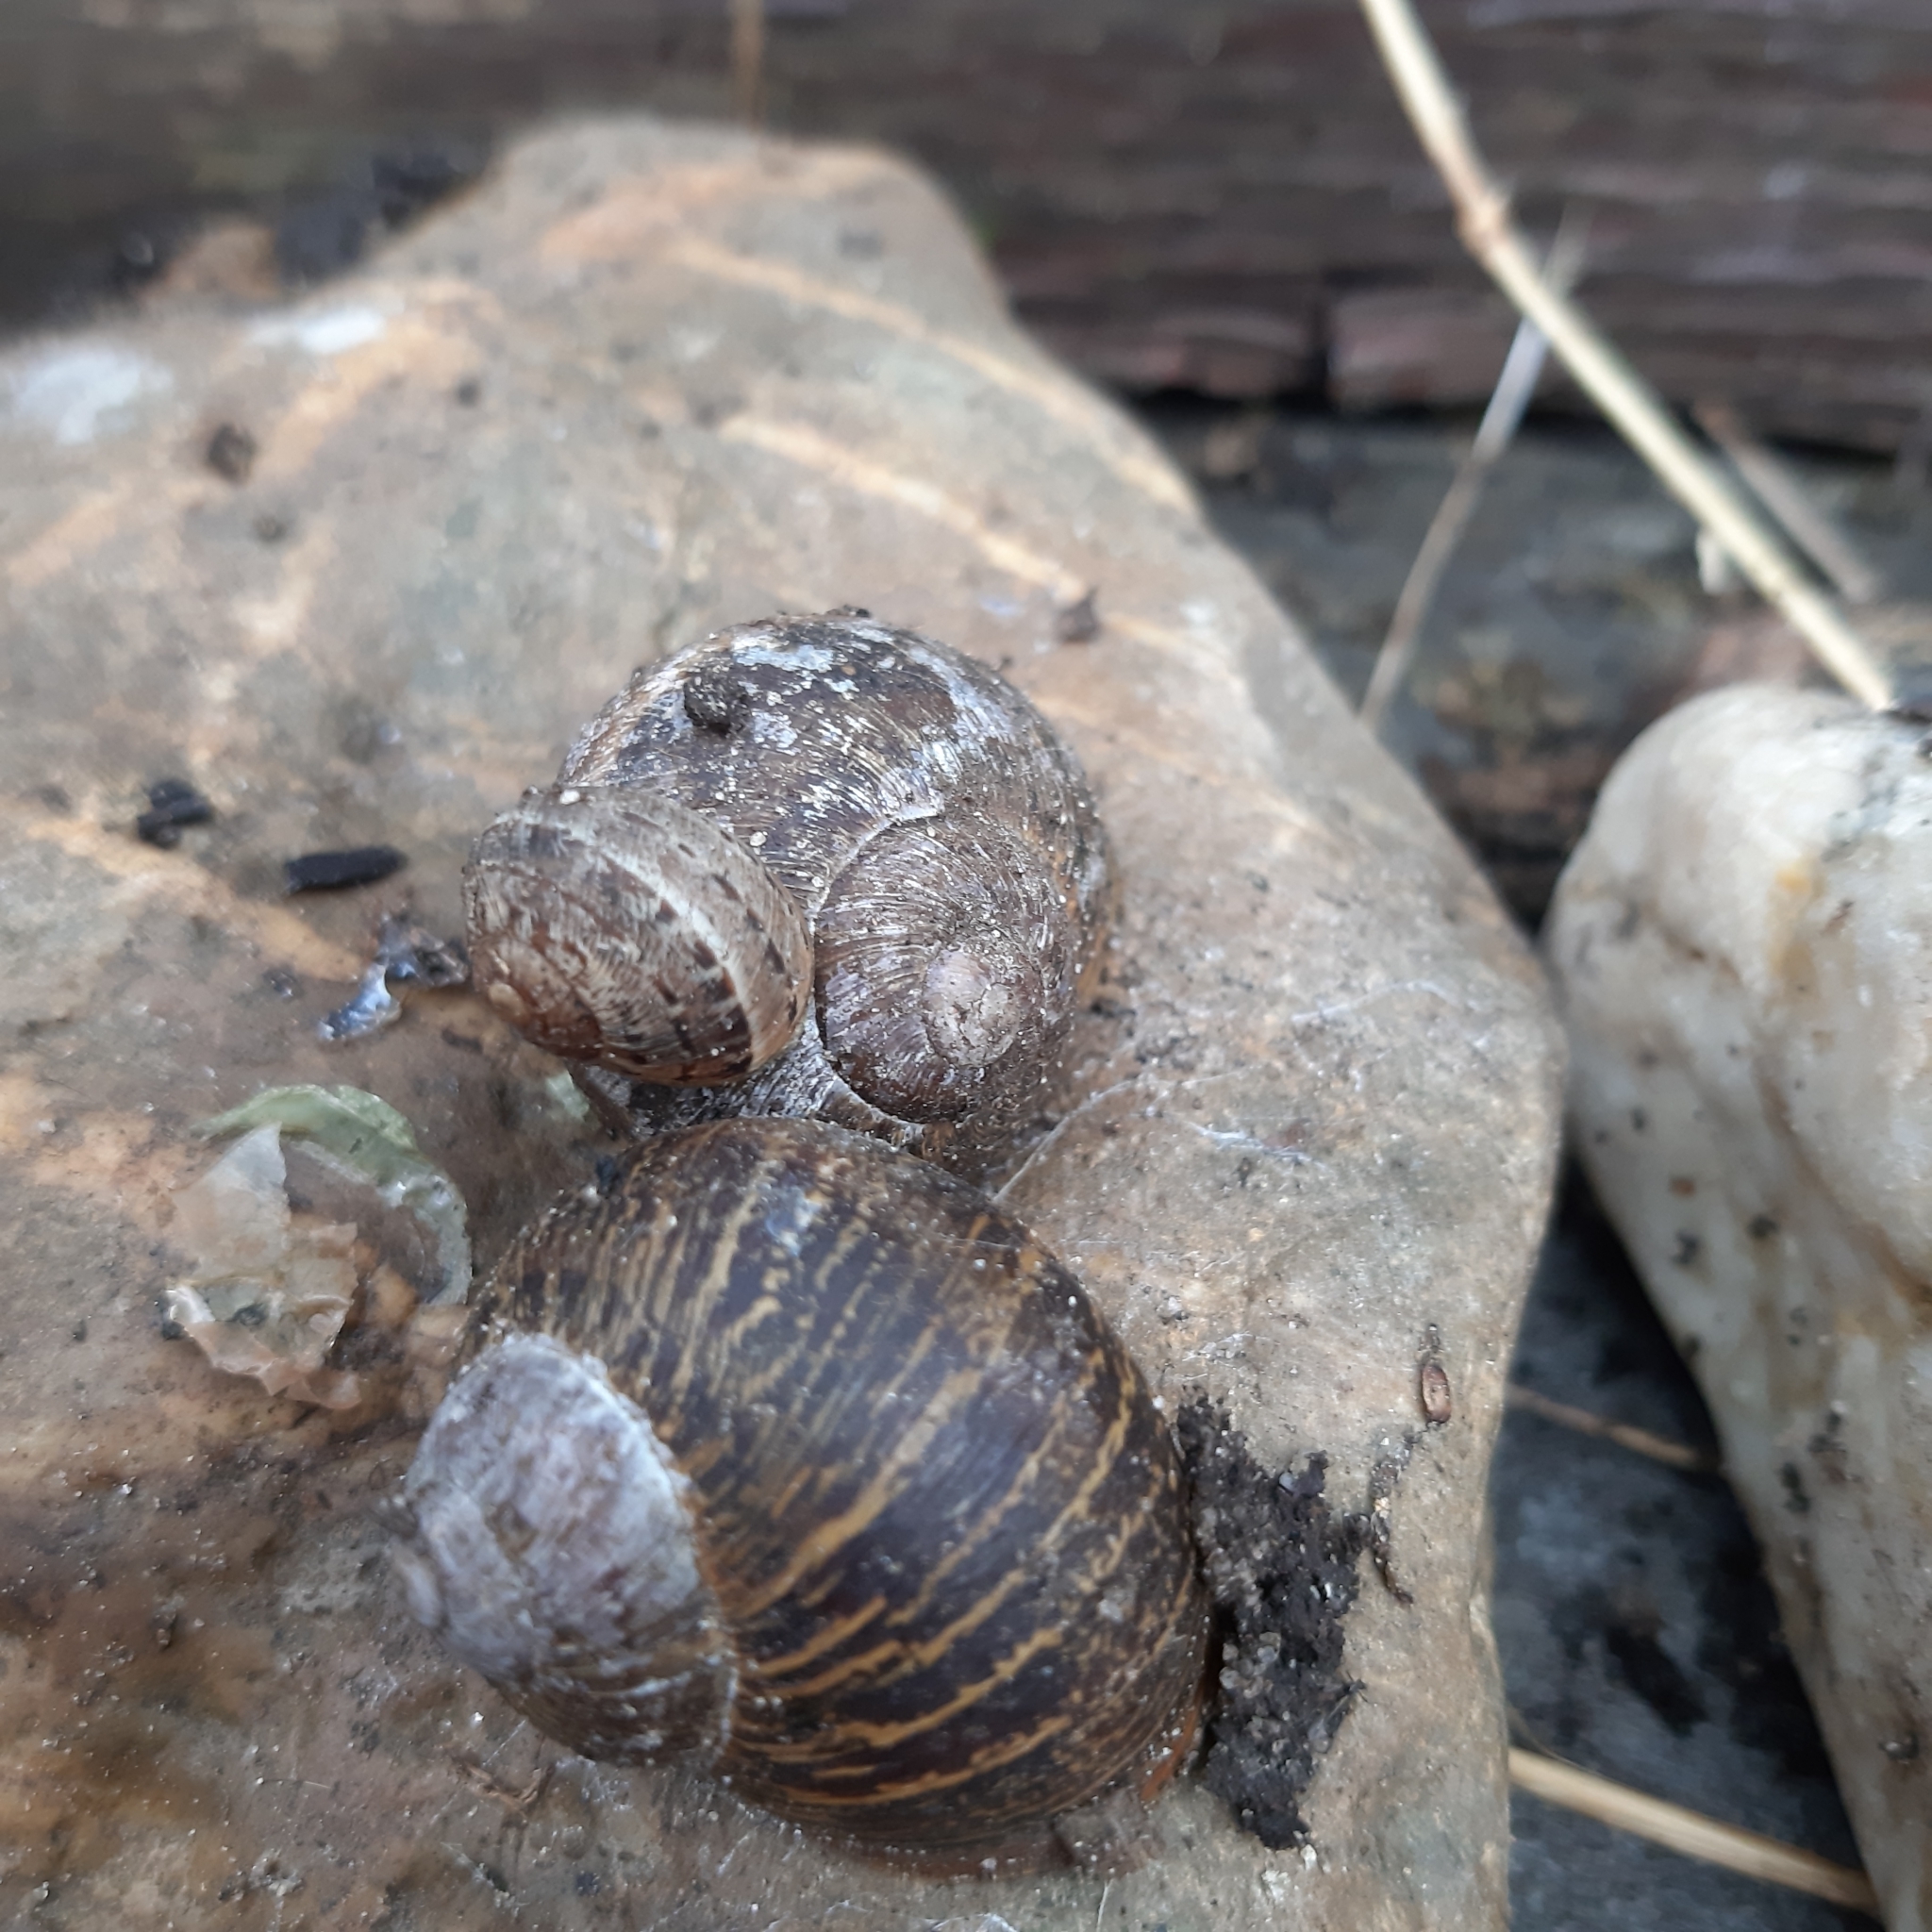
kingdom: Animalia
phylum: Mollusca
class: Gastropoda
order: Stylommatophora
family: Helicidae
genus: Cornu
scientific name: Cornu aspersum
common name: Brown garden snail
